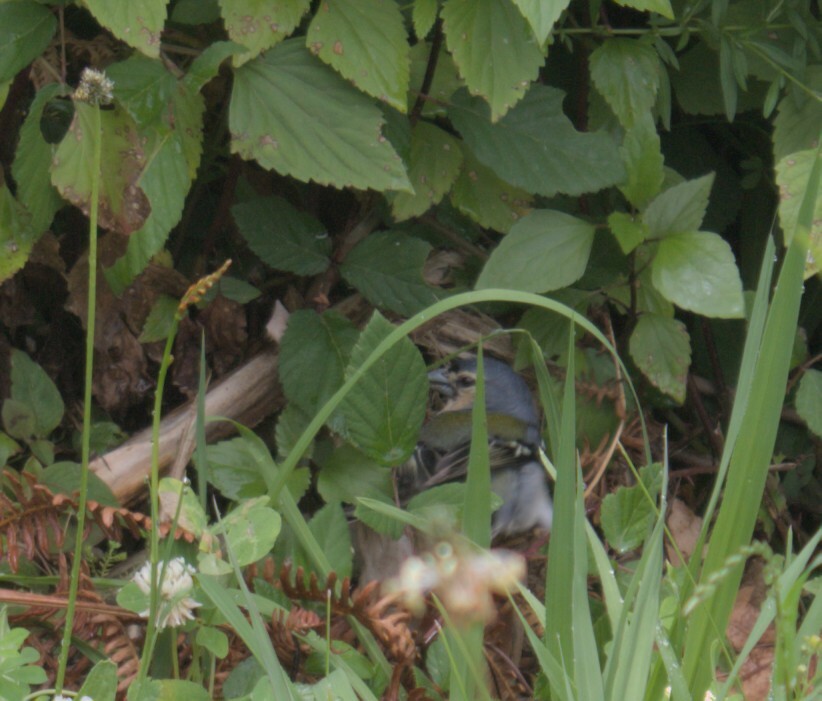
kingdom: Animalia
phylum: Chordata
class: Aves
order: Passeriformes
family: Fringillidae
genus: Fringilla
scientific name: Fringilla moreletti
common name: Azores chaffinch
